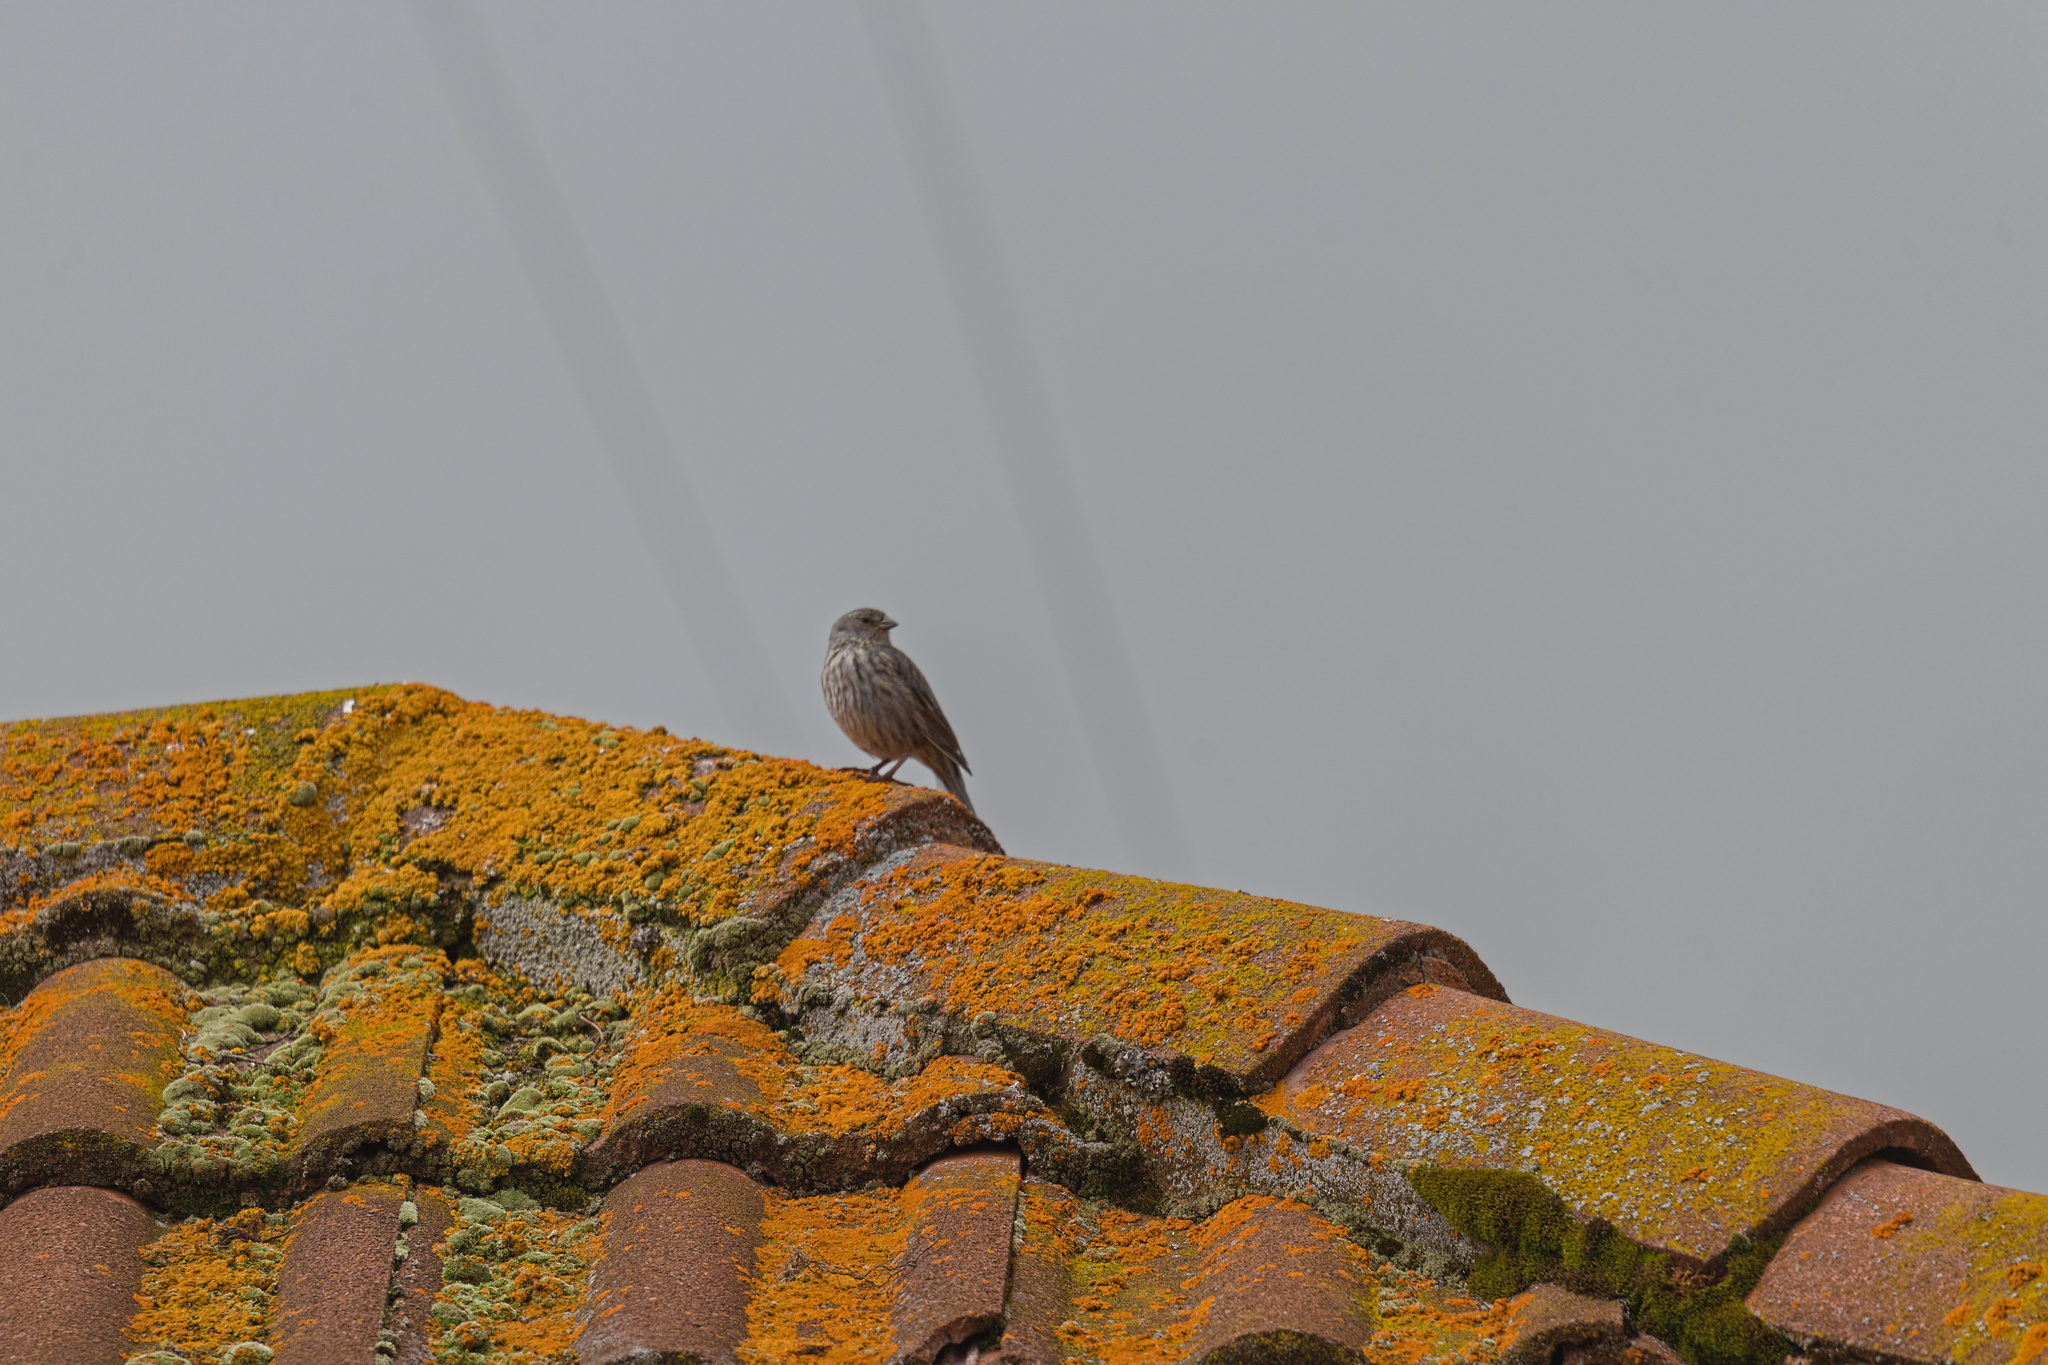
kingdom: Animalia
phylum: Chordata
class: Aves
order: Passeriformes
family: Thraupidae
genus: Geospizopsis
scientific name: Geospizopsis unicolor
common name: Plumbeous sierra-finch
